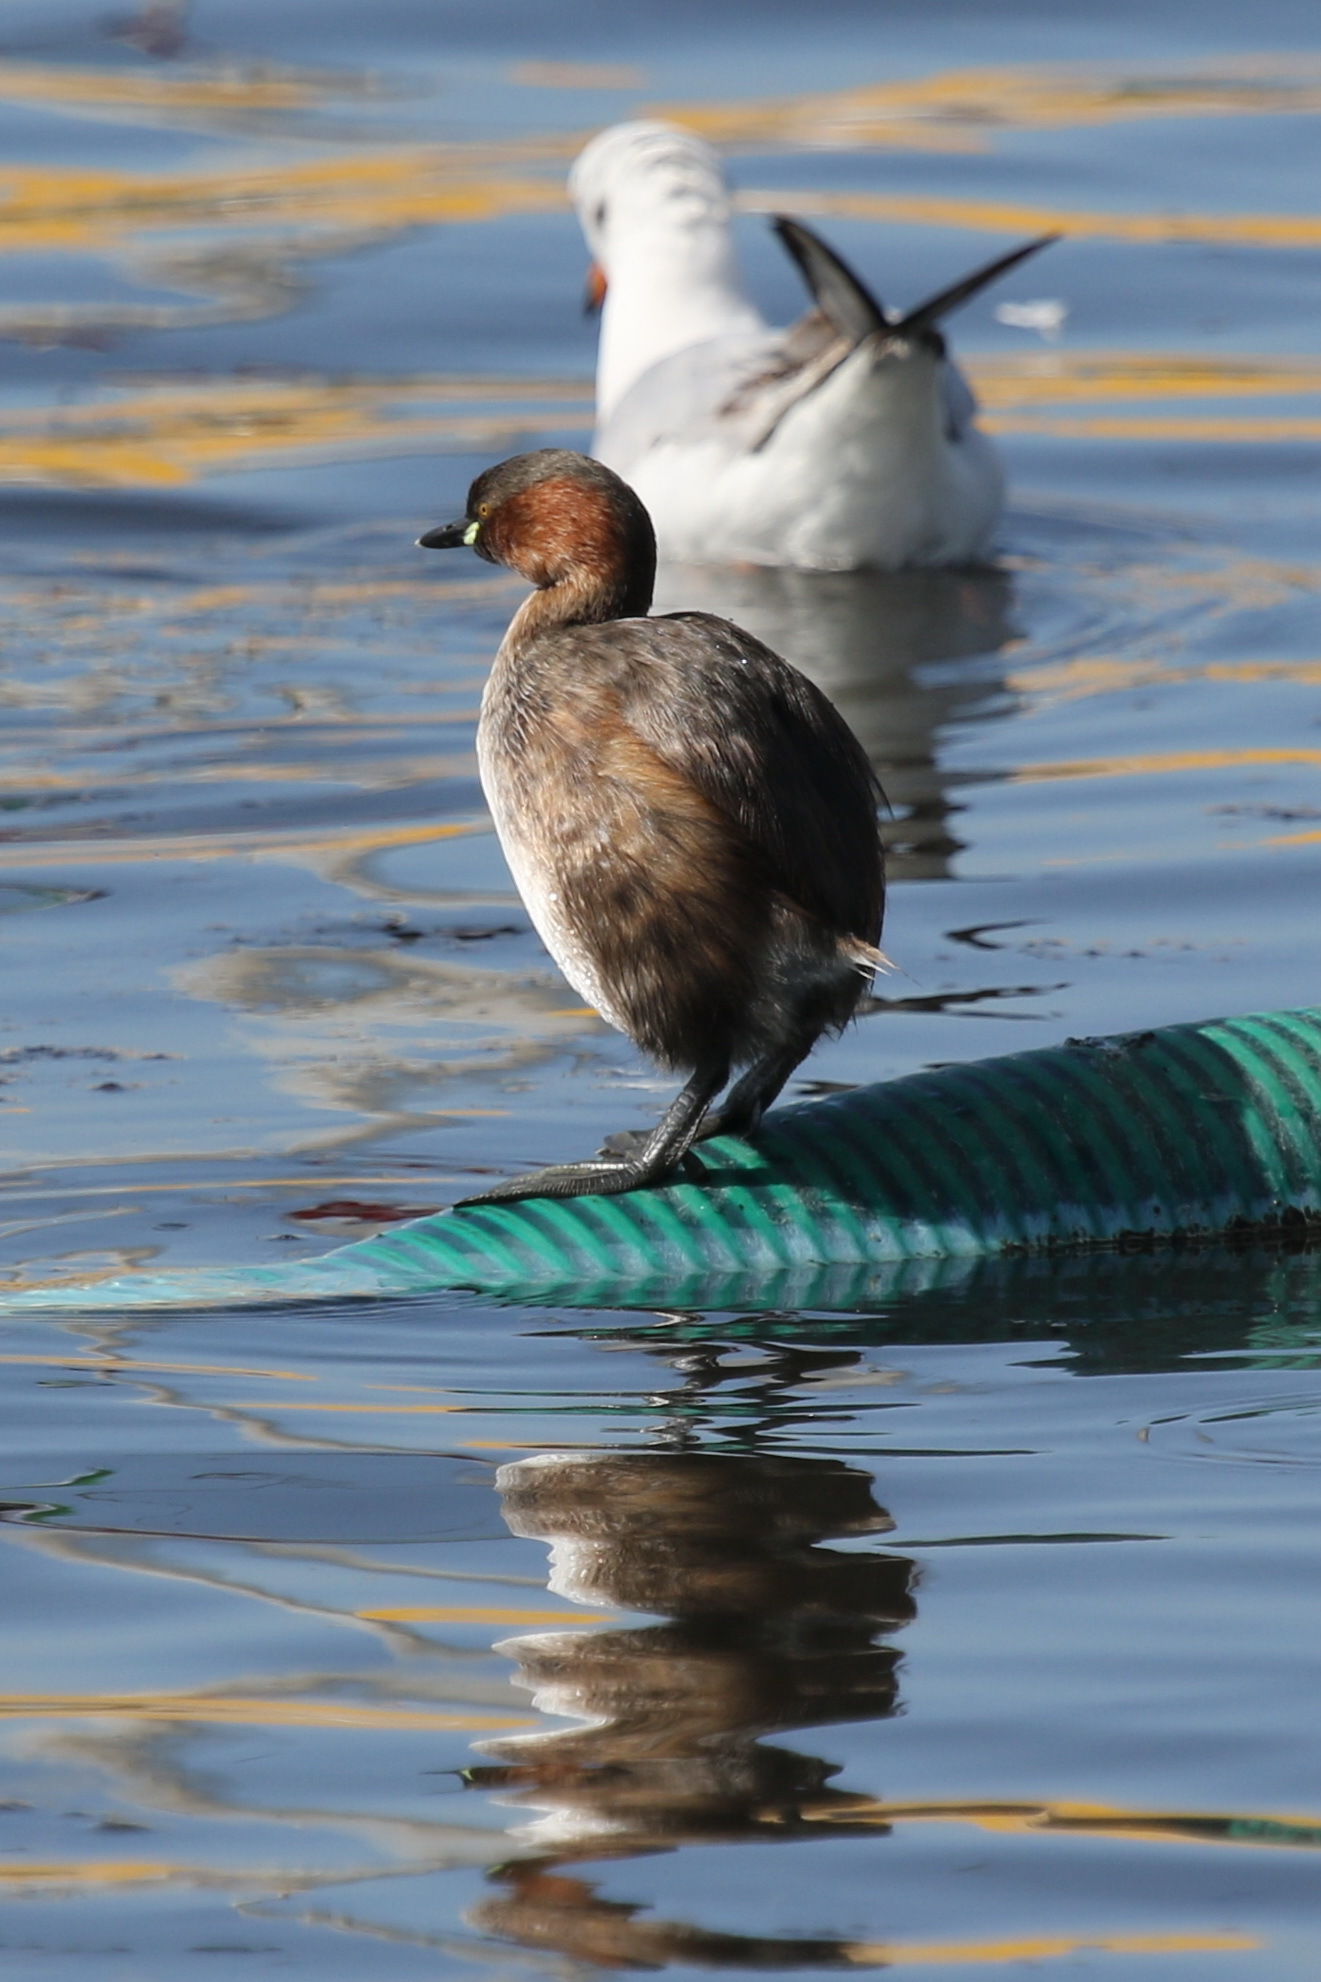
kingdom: Animalia
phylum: Chordata
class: Aves
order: Podicipediformes
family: Podicipedidae
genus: Tachybaptus
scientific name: Tachybaptus ruficollis
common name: Little grebe
